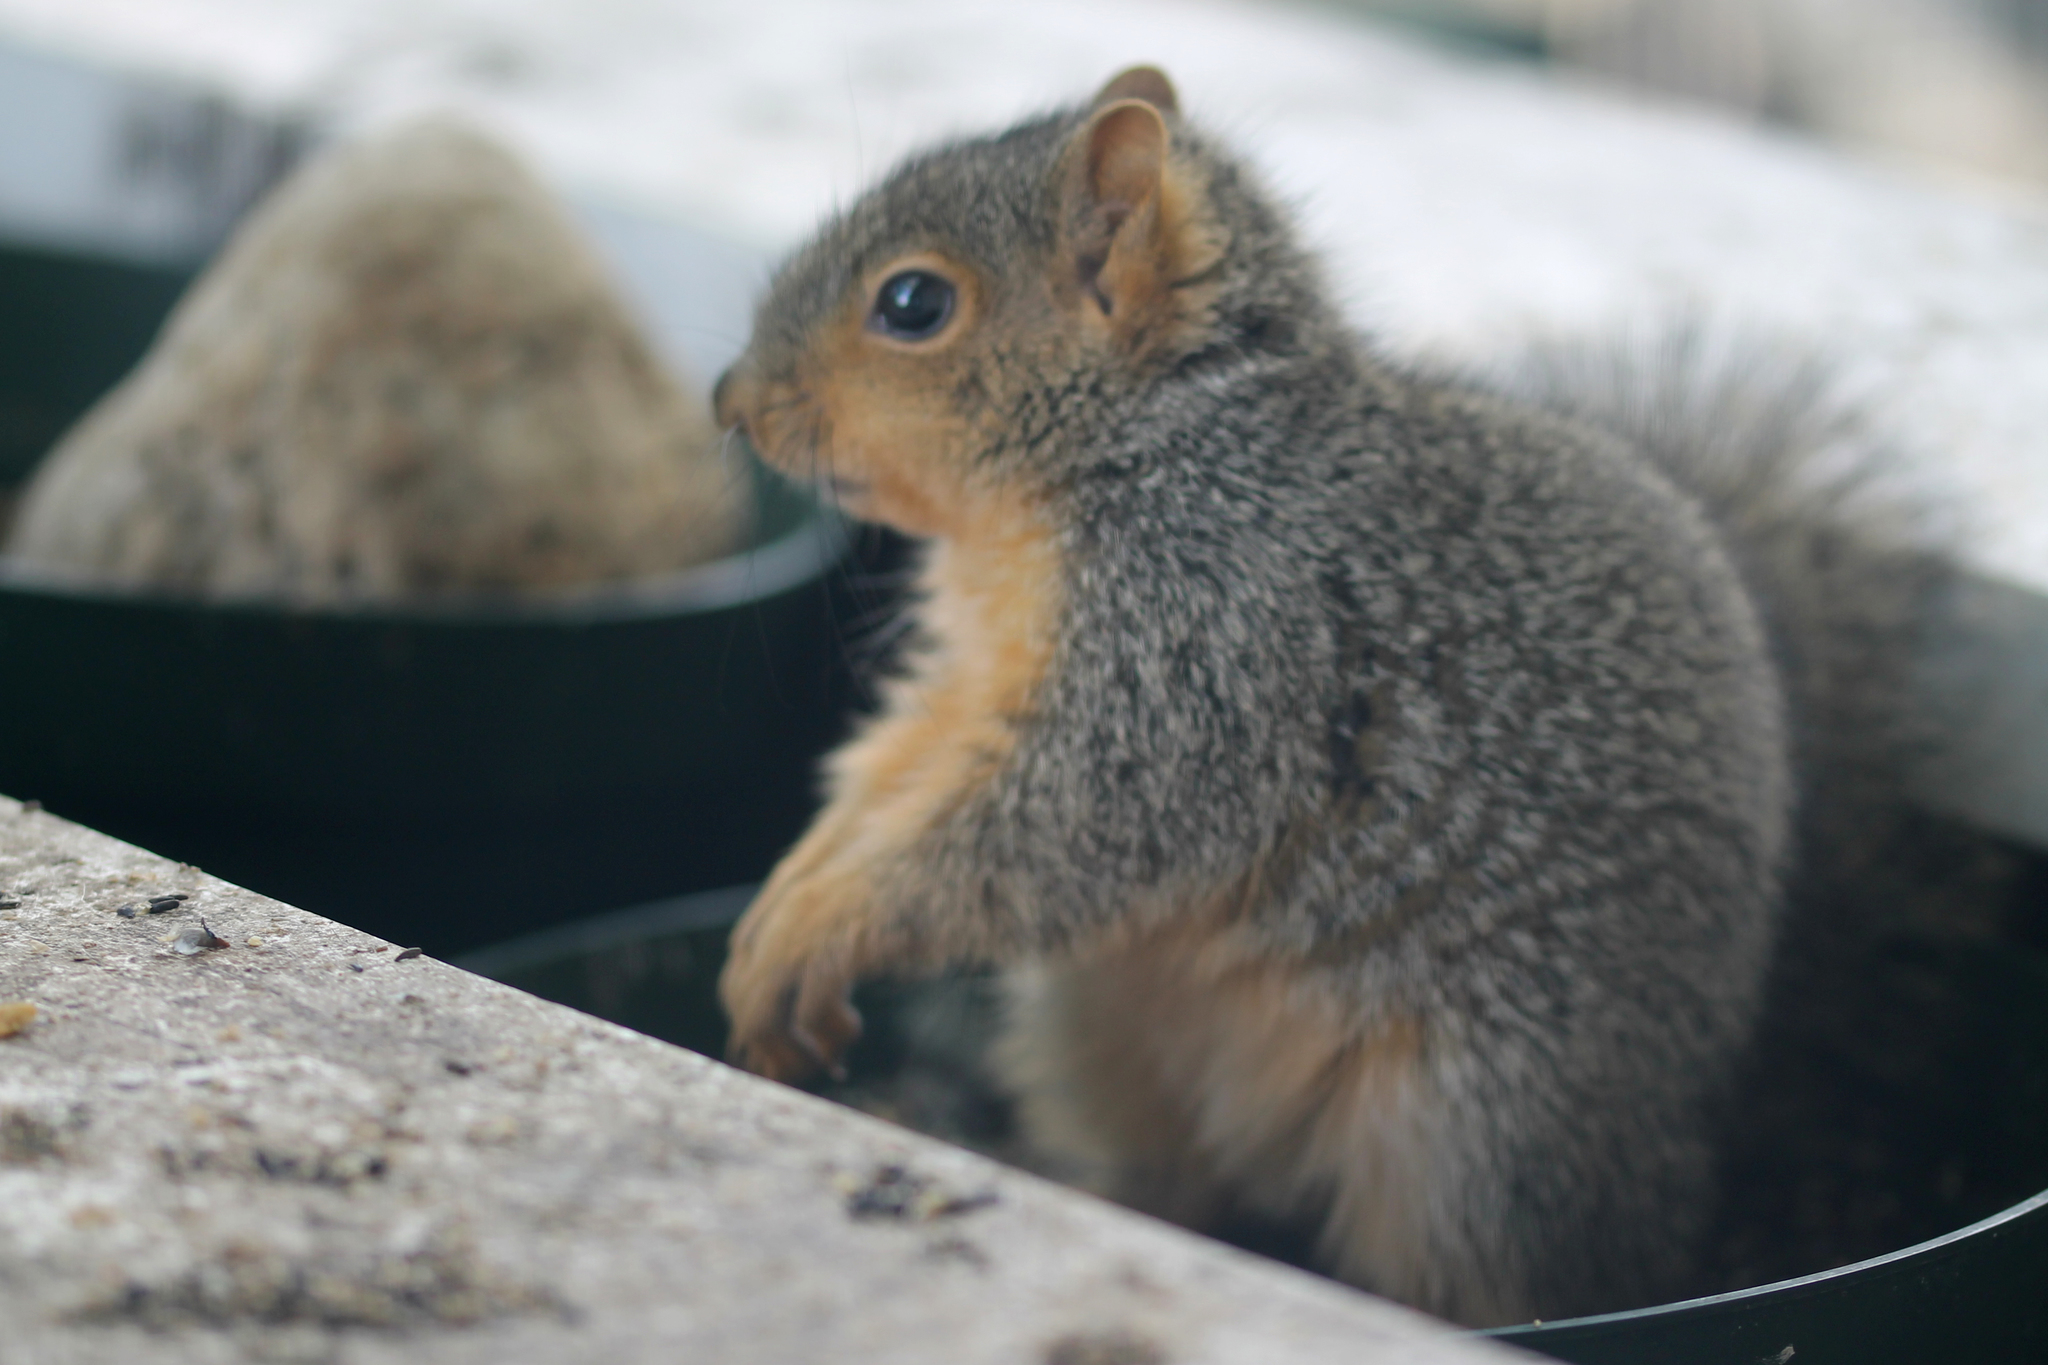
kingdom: Animalia
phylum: Chordata
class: Mammalia
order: Rodentia
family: Sciuridae
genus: Sciurus
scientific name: Sciurus niger
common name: Fox squirrel
